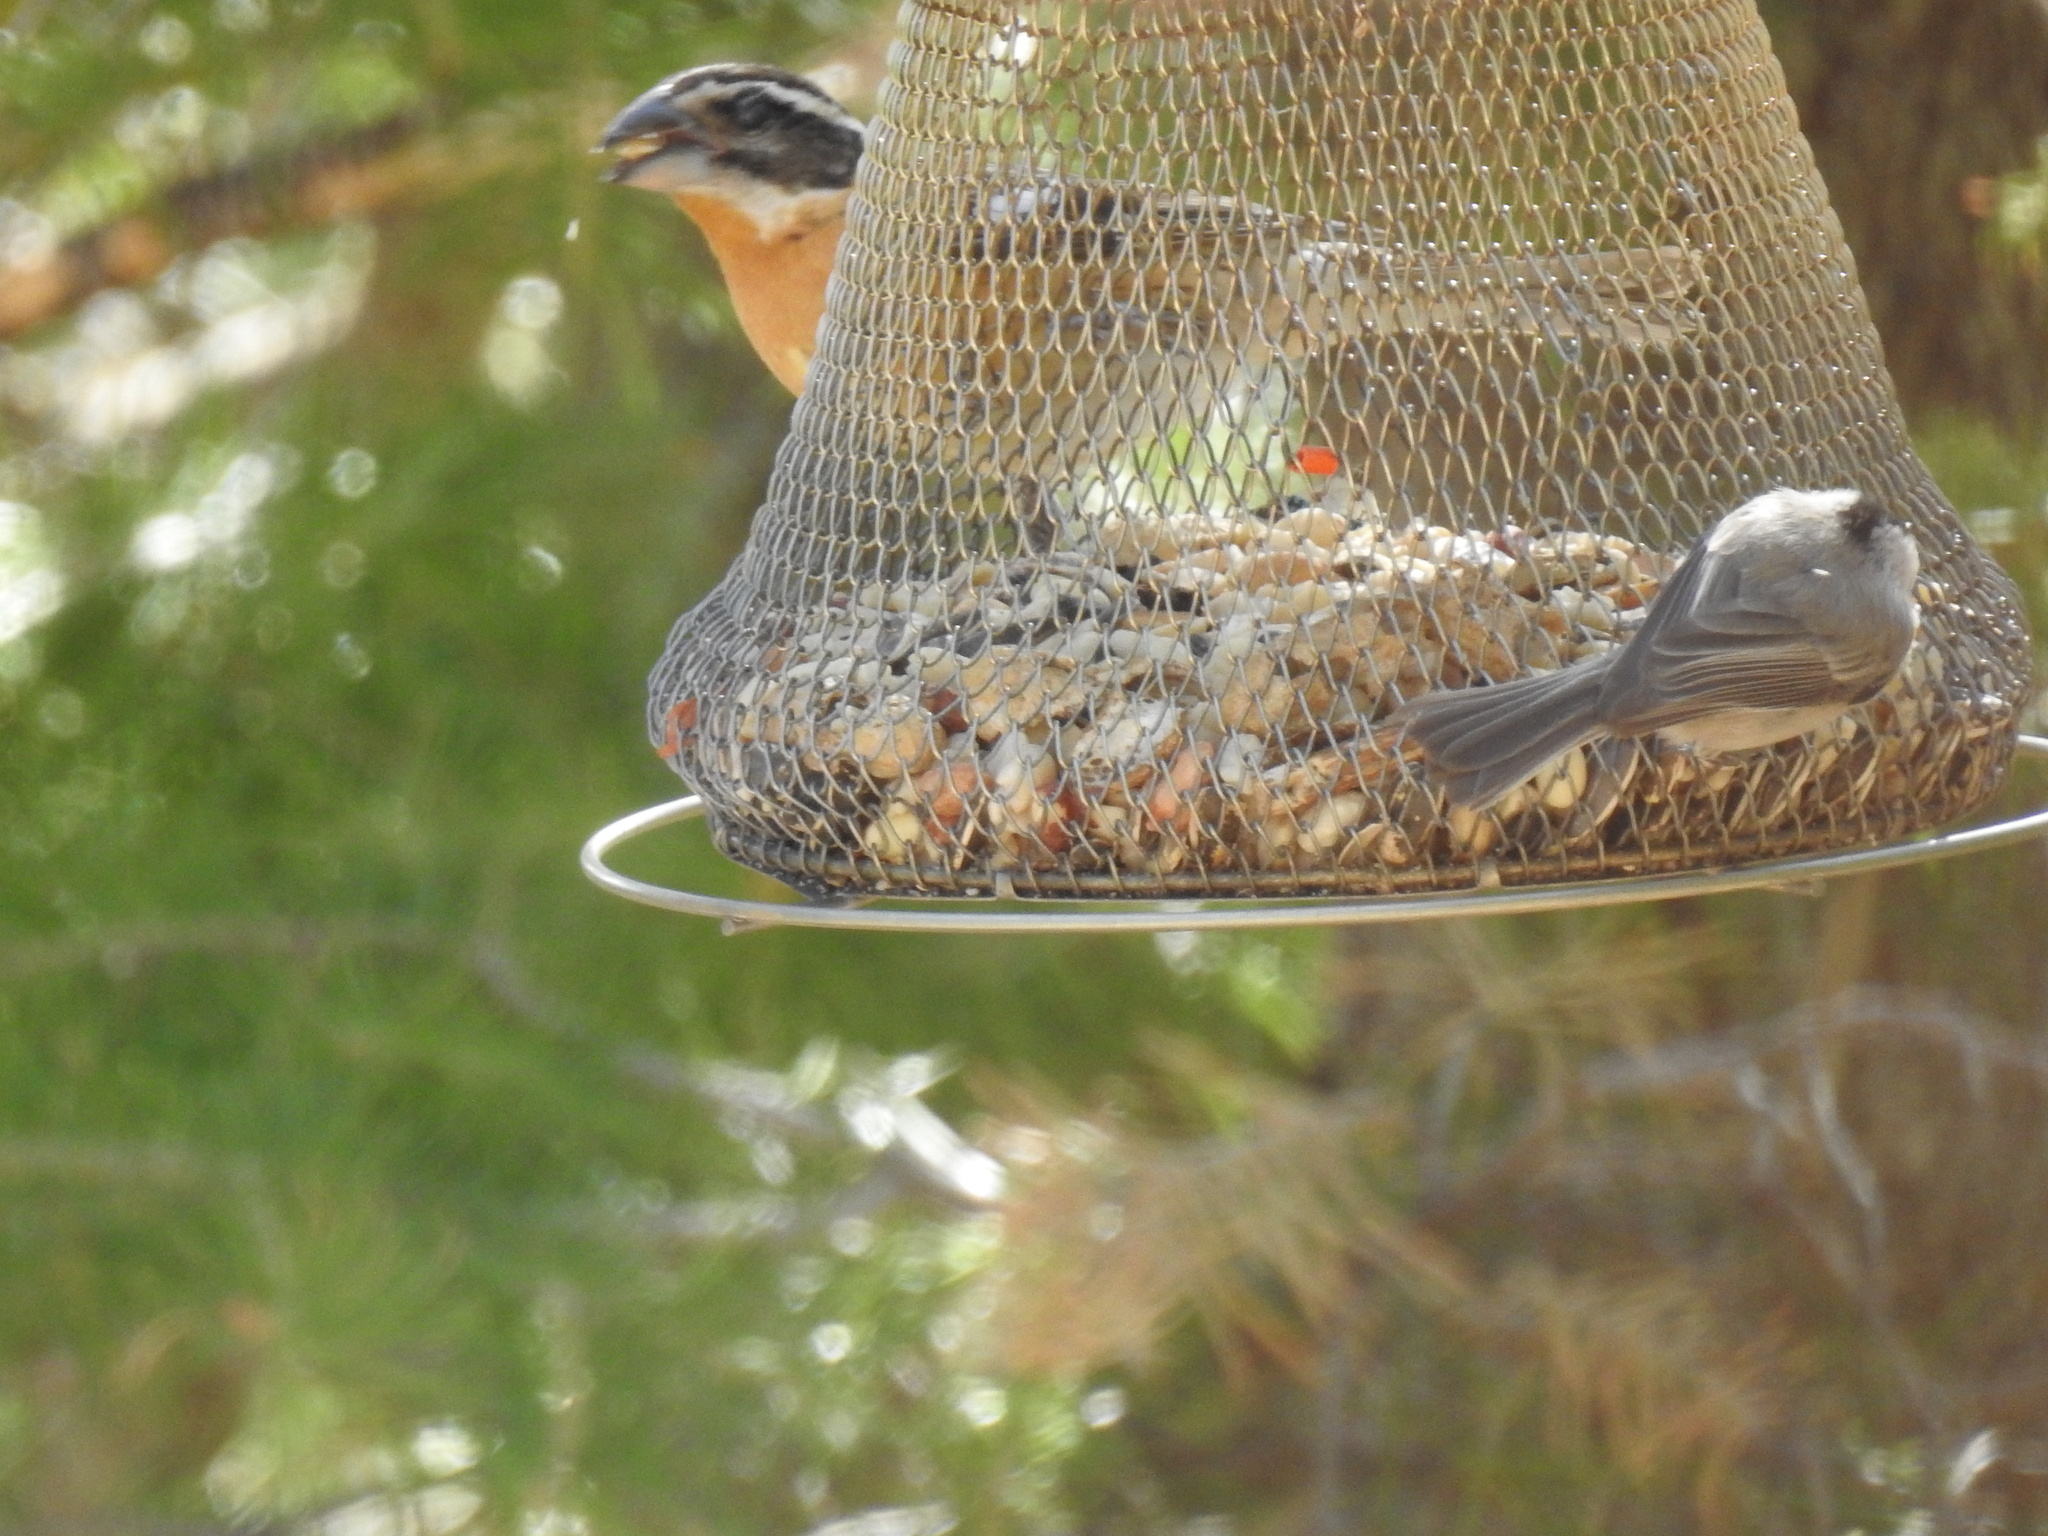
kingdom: Animalia
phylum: Chordata
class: Aves
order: Passeriformes
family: Cardinalidae
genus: Pheucticus
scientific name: Pheucticus melanocephalus
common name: Black-headed grosbeak
